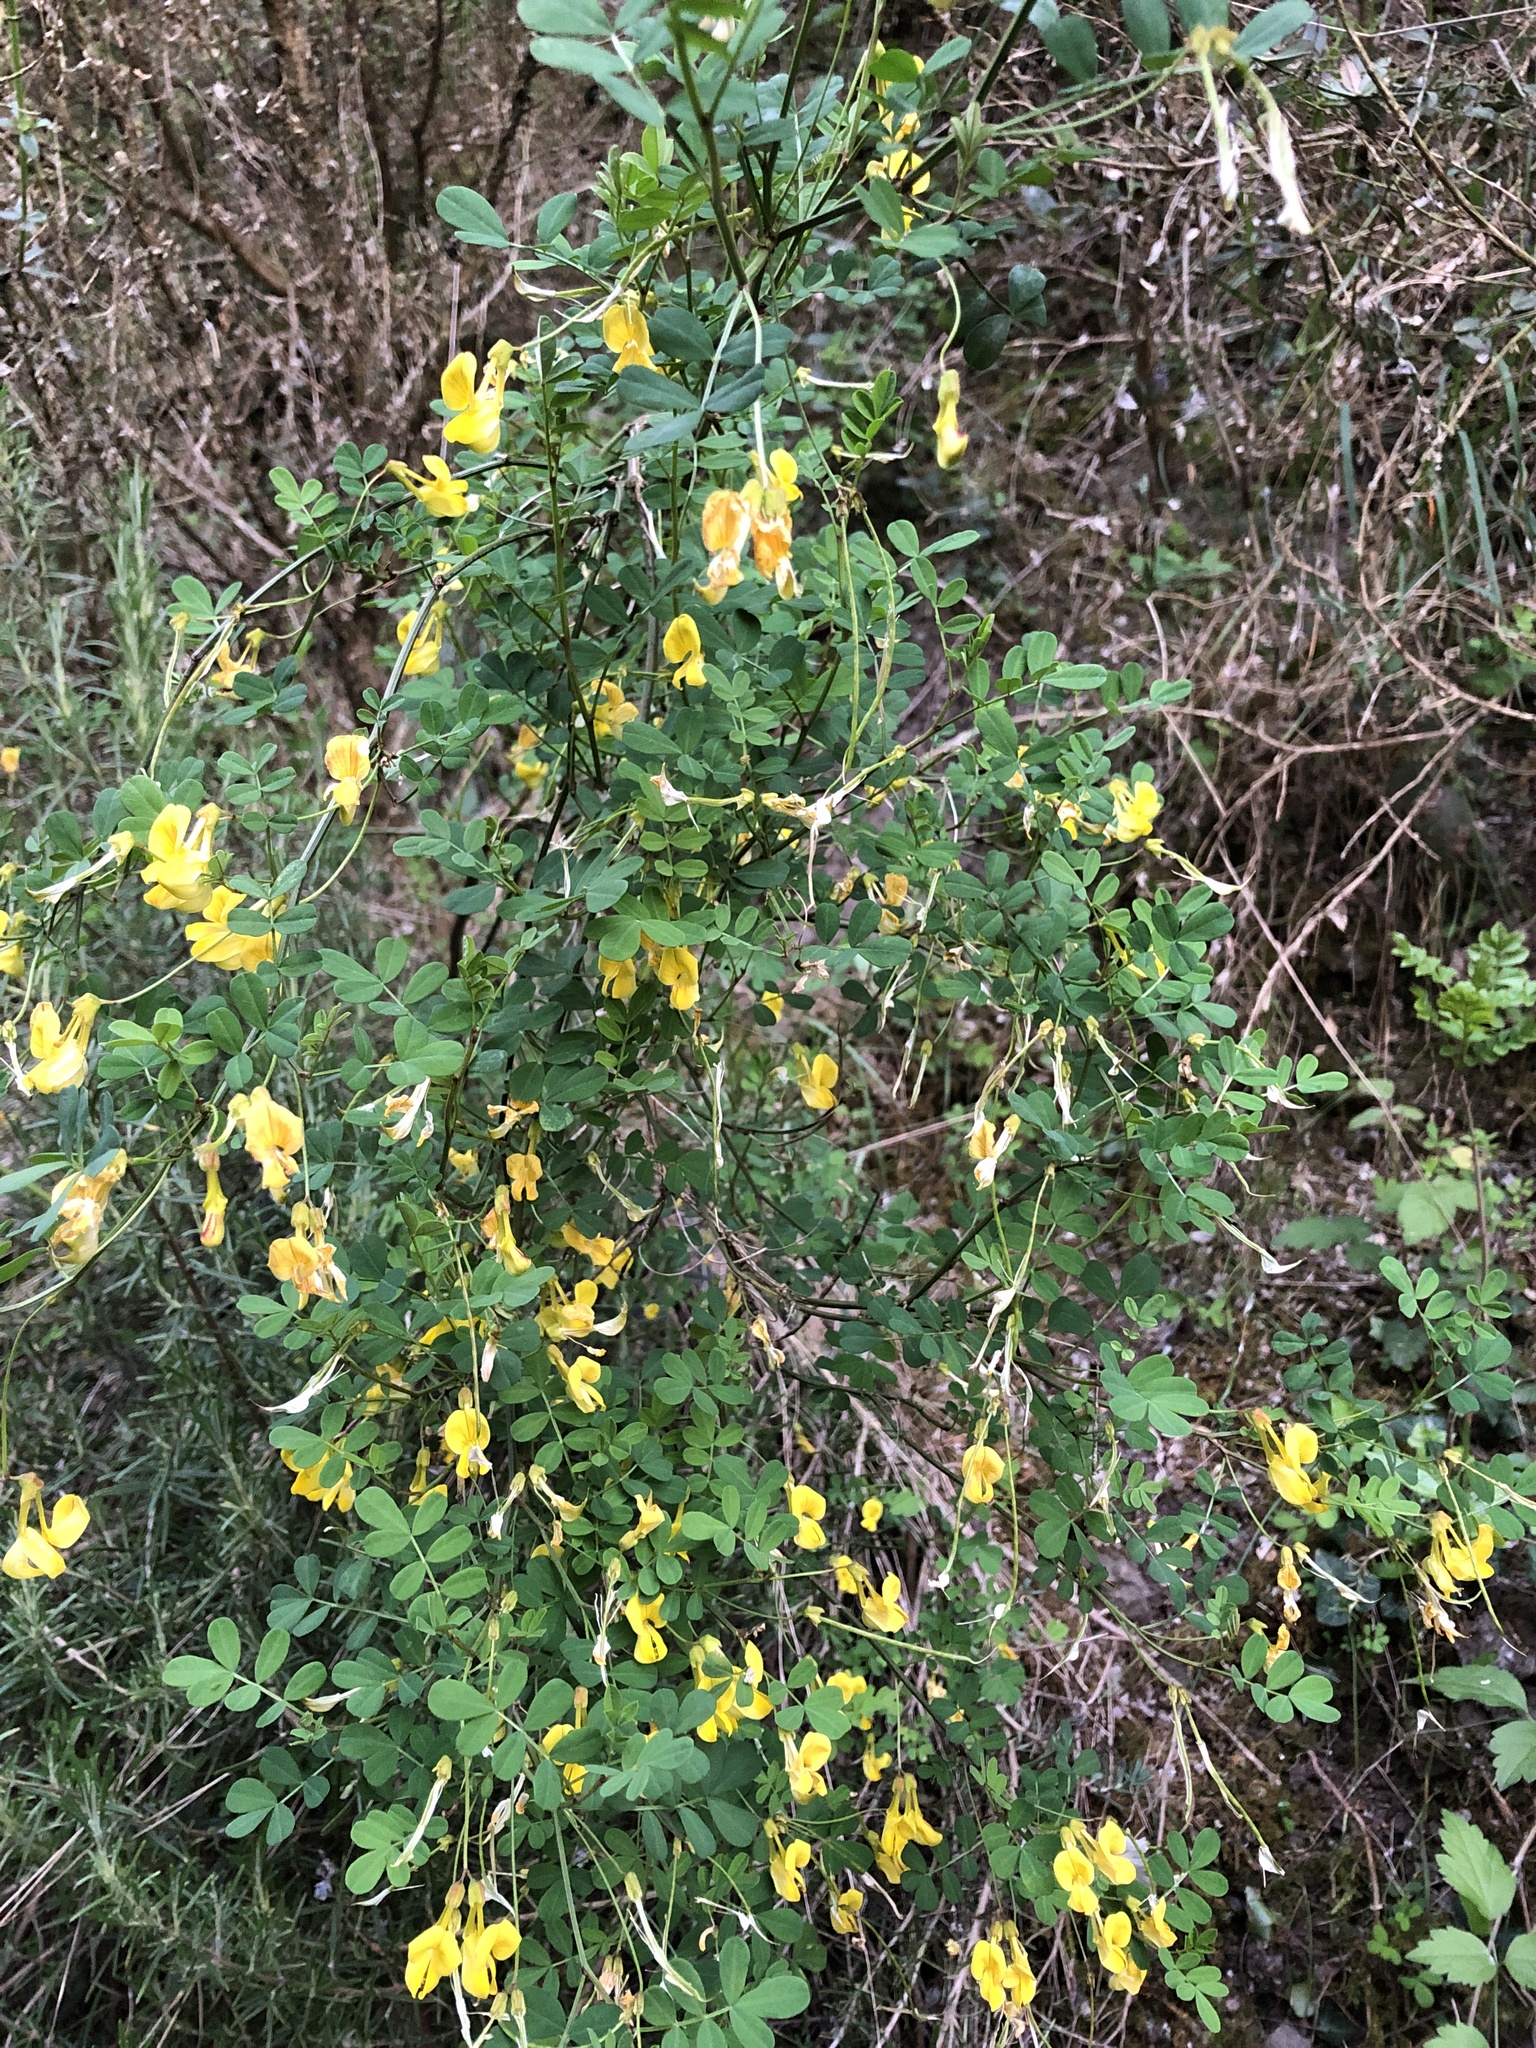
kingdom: Plantae
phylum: Tracheophyta
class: Magnoliopsida
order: Fabales
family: Fabaceae
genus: Hippocrepis
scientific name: Hippocrepis emerus
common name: Scorpion senna
